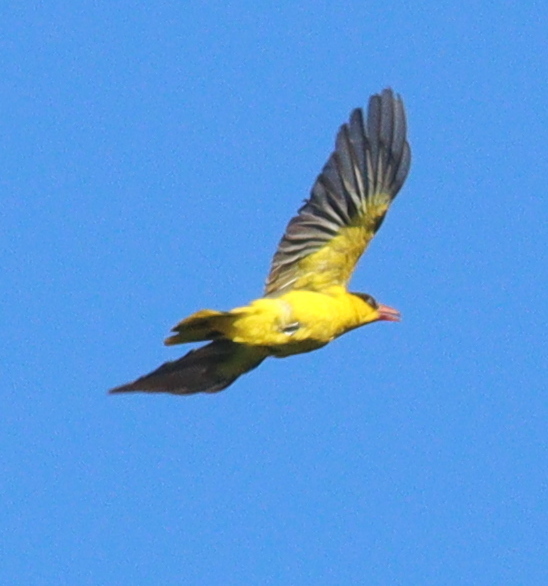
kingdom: Animalia
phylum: Chordata
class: Aves
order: Passeriformes
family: Oriolidae
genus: Oriolus
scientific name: Oriolus chinensis
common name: Black-naped oriole
